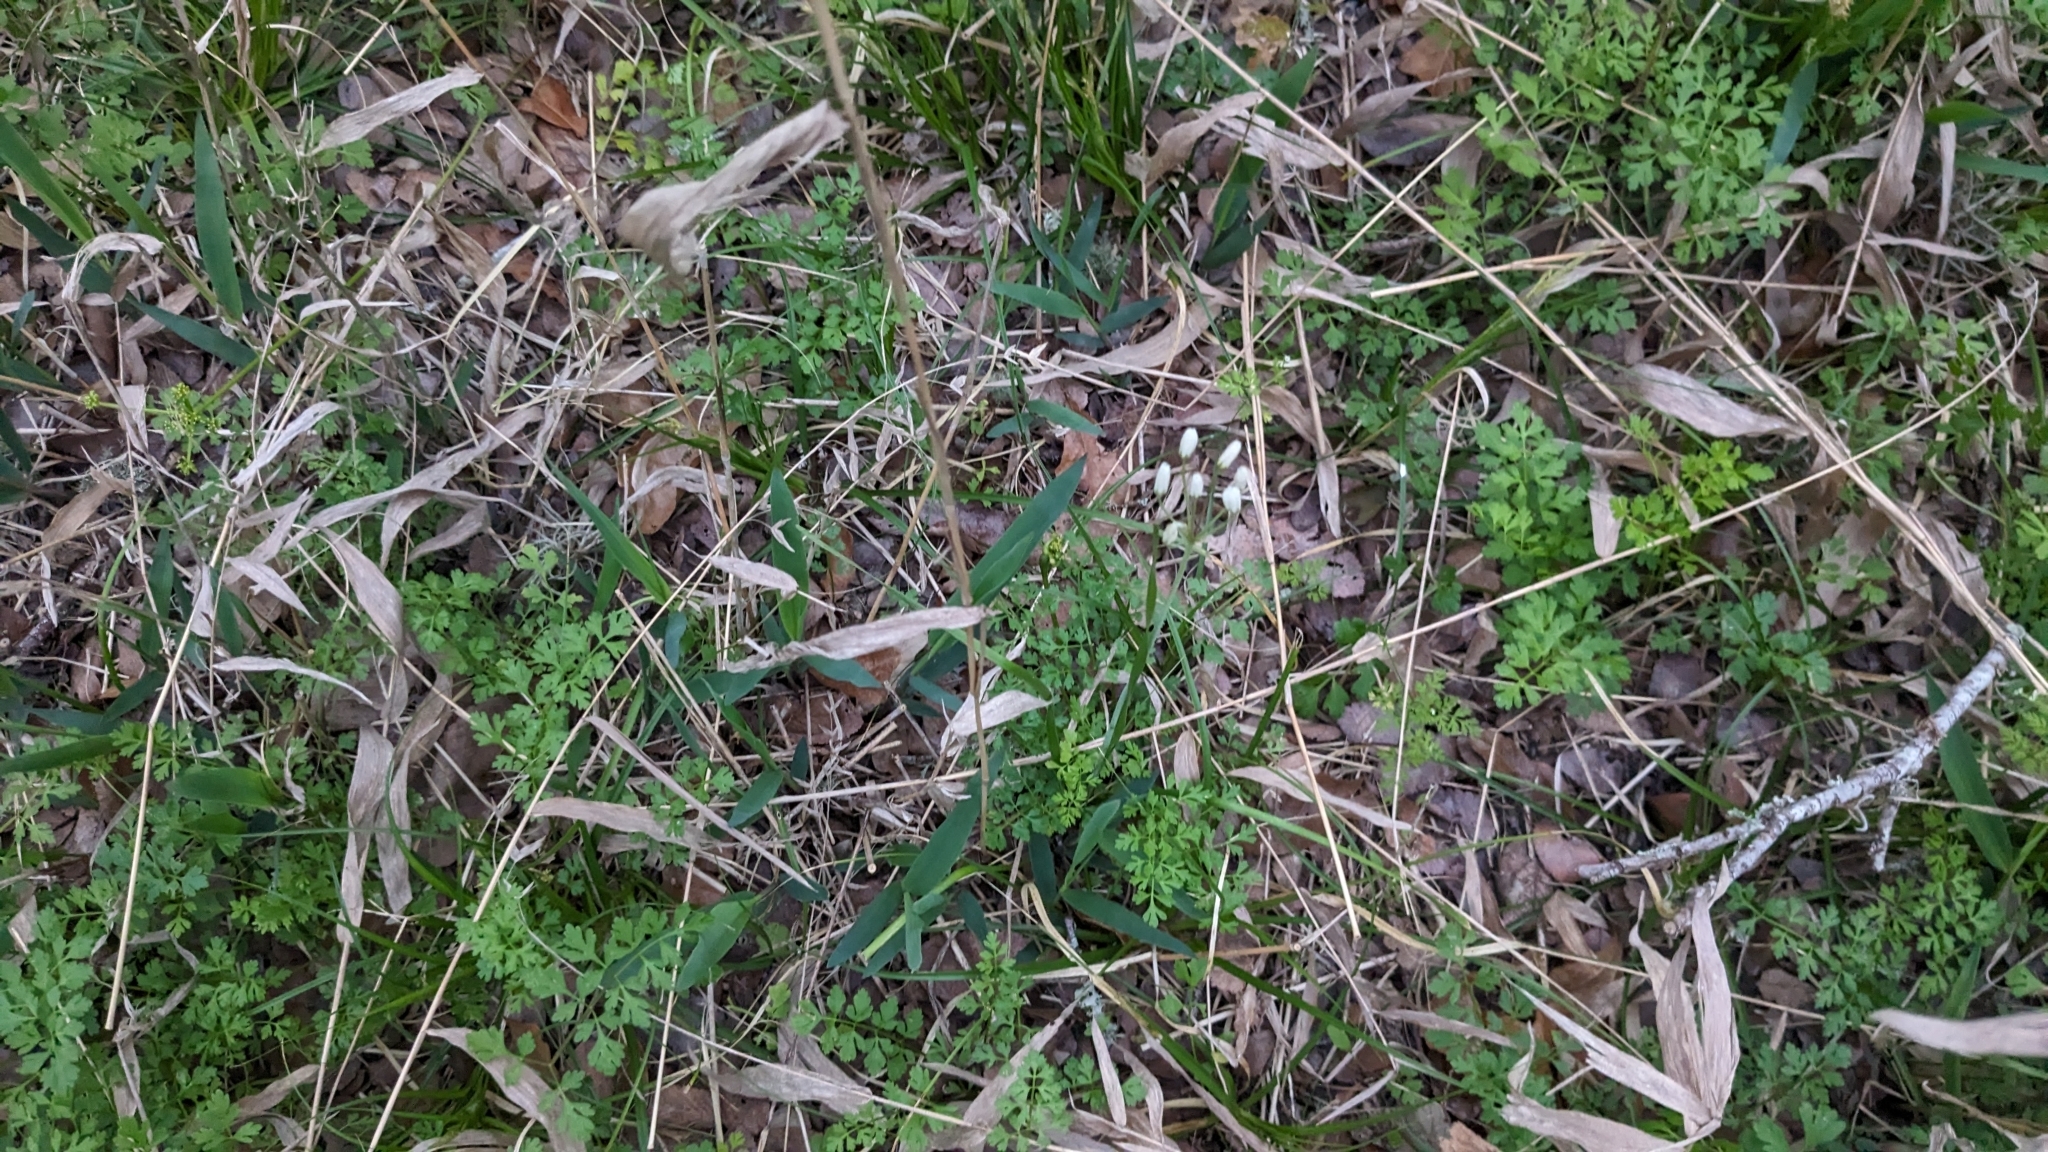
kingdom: Plantae
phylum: Tracheophyta
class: Liliopsida
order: Poales
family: Poaceae
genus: Chasmanthium
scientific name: Chasmanthium latifolium
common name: Broad-leaved chasmanthium
